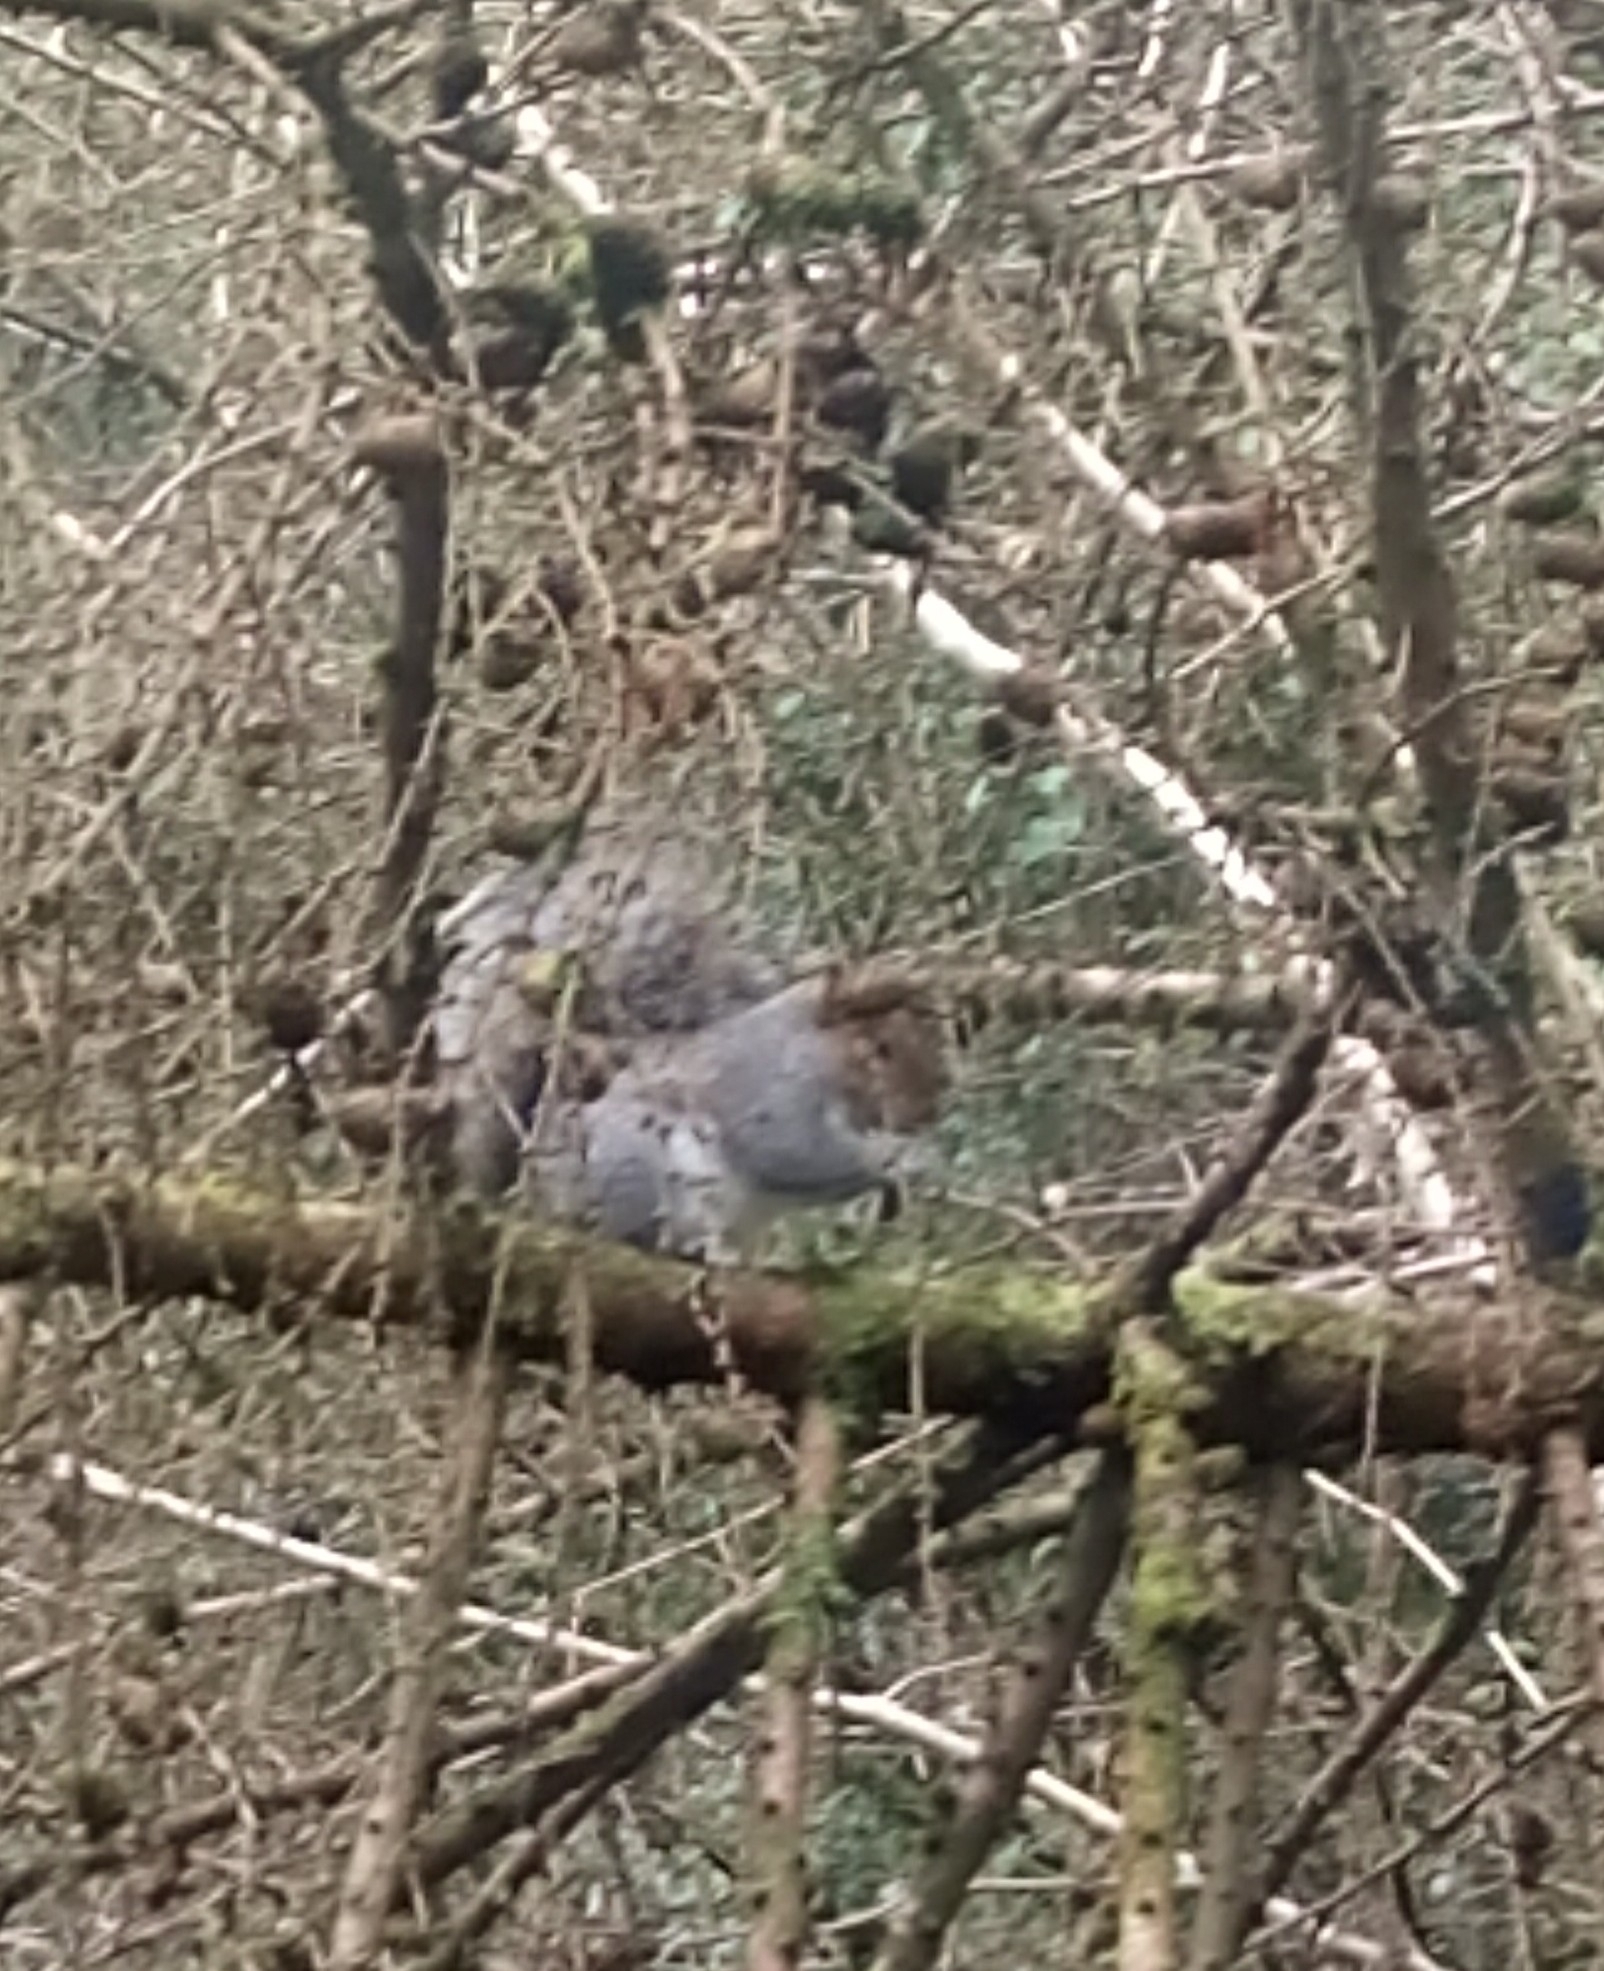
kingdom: Animalia
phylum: Chordata
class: Mammalia
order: Rodentia
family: Sciuridae
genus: Sciurus
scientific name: Sciurus carolinensis
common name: Eastern gray squirrel
